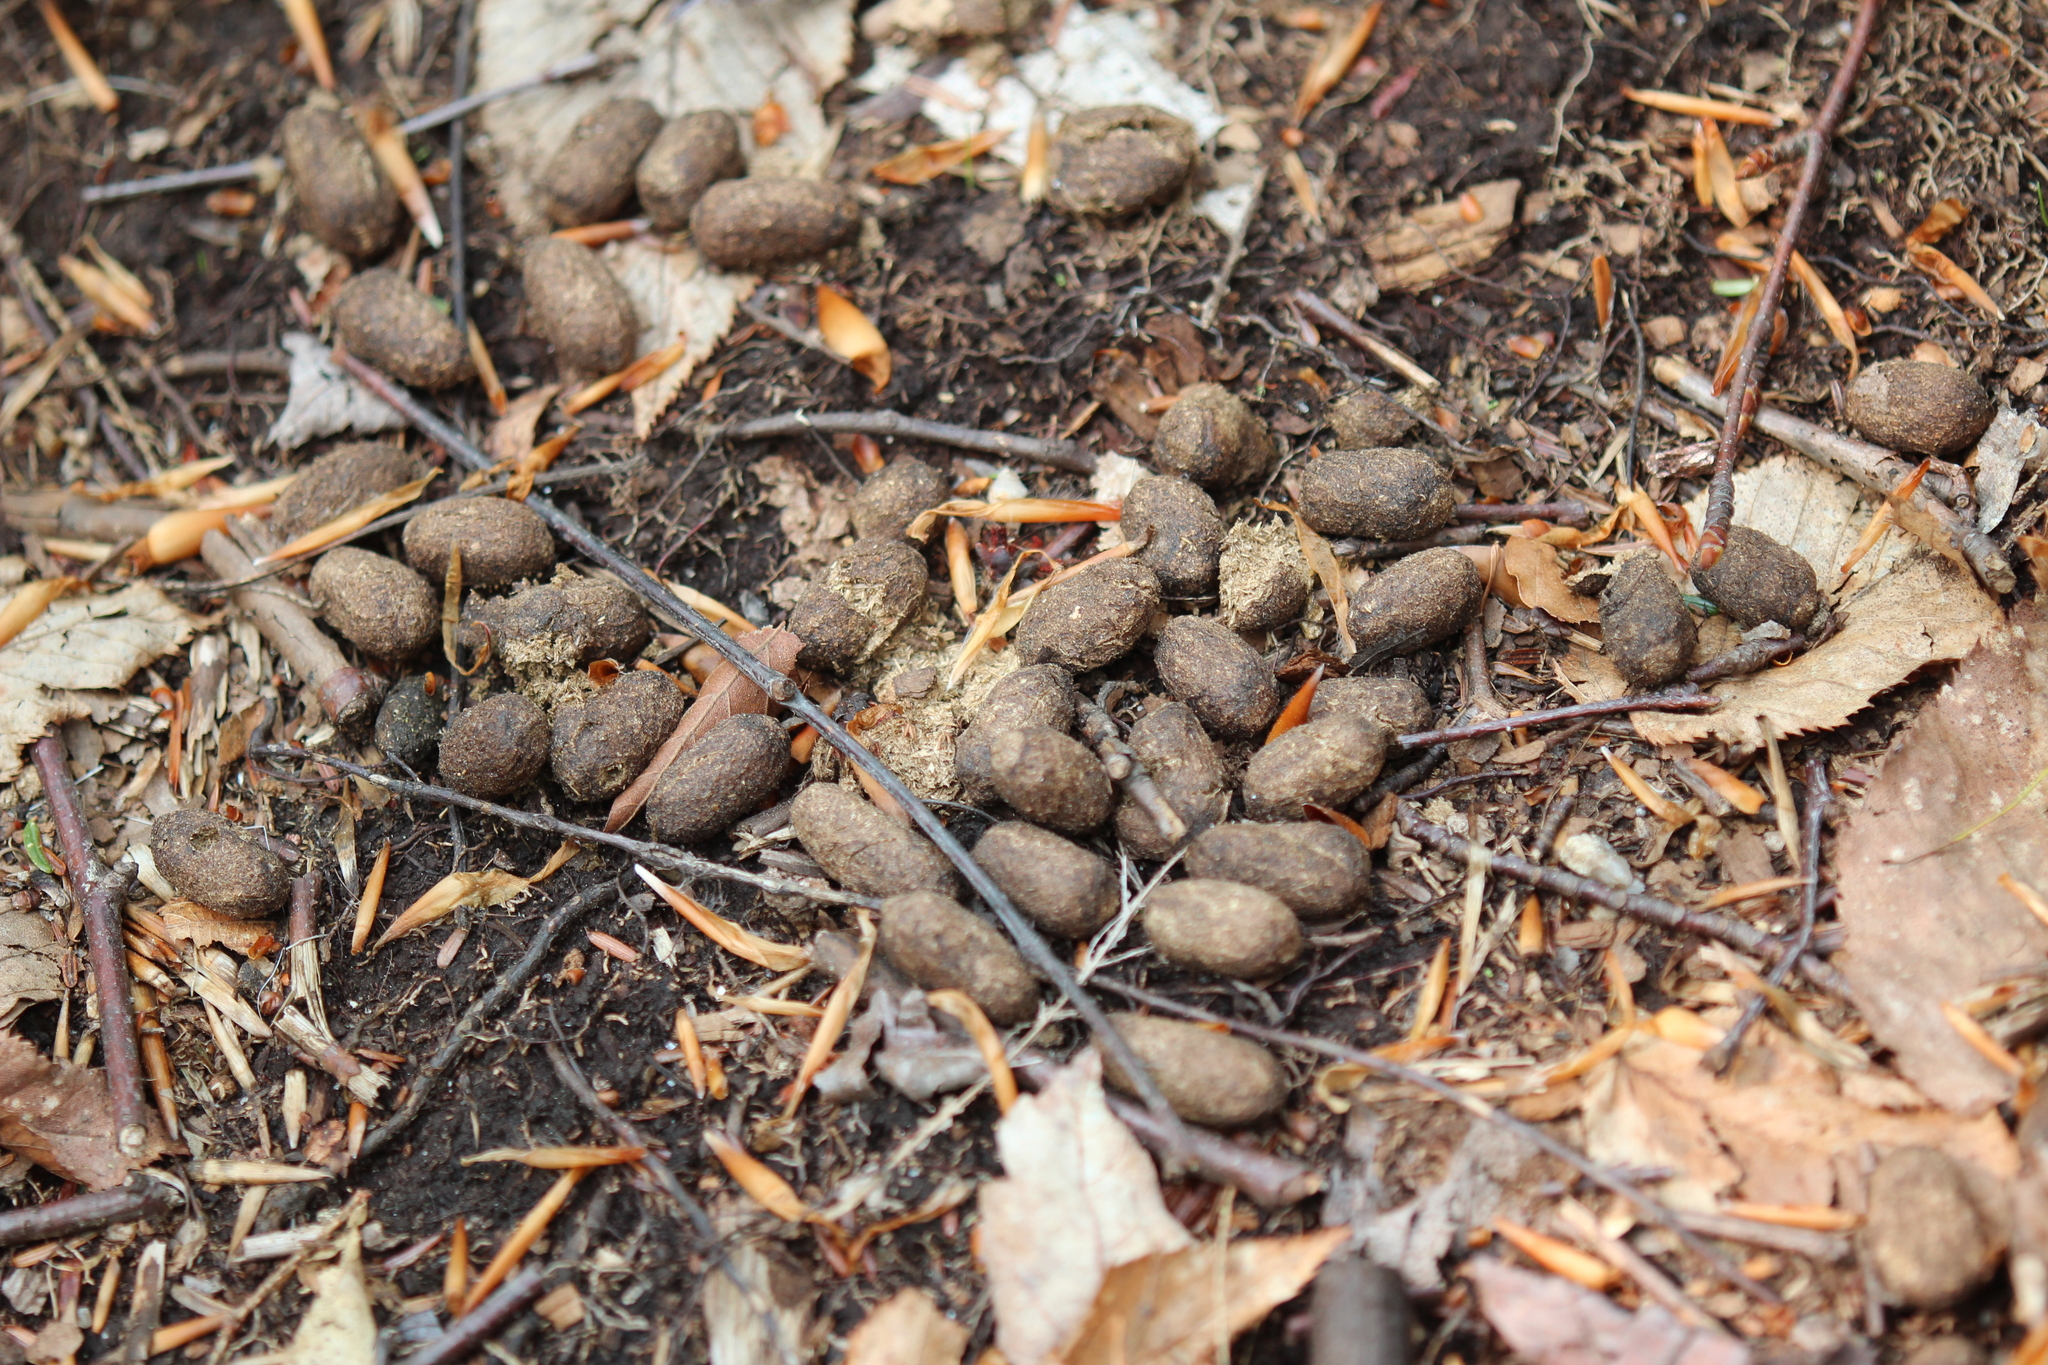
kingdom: Animalia
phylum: Chordata
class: Mammalia
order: Artiodactyla
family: Cervidae
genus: Odocoileus
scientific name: Odocoileus virginianus
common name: White-tailed deer
